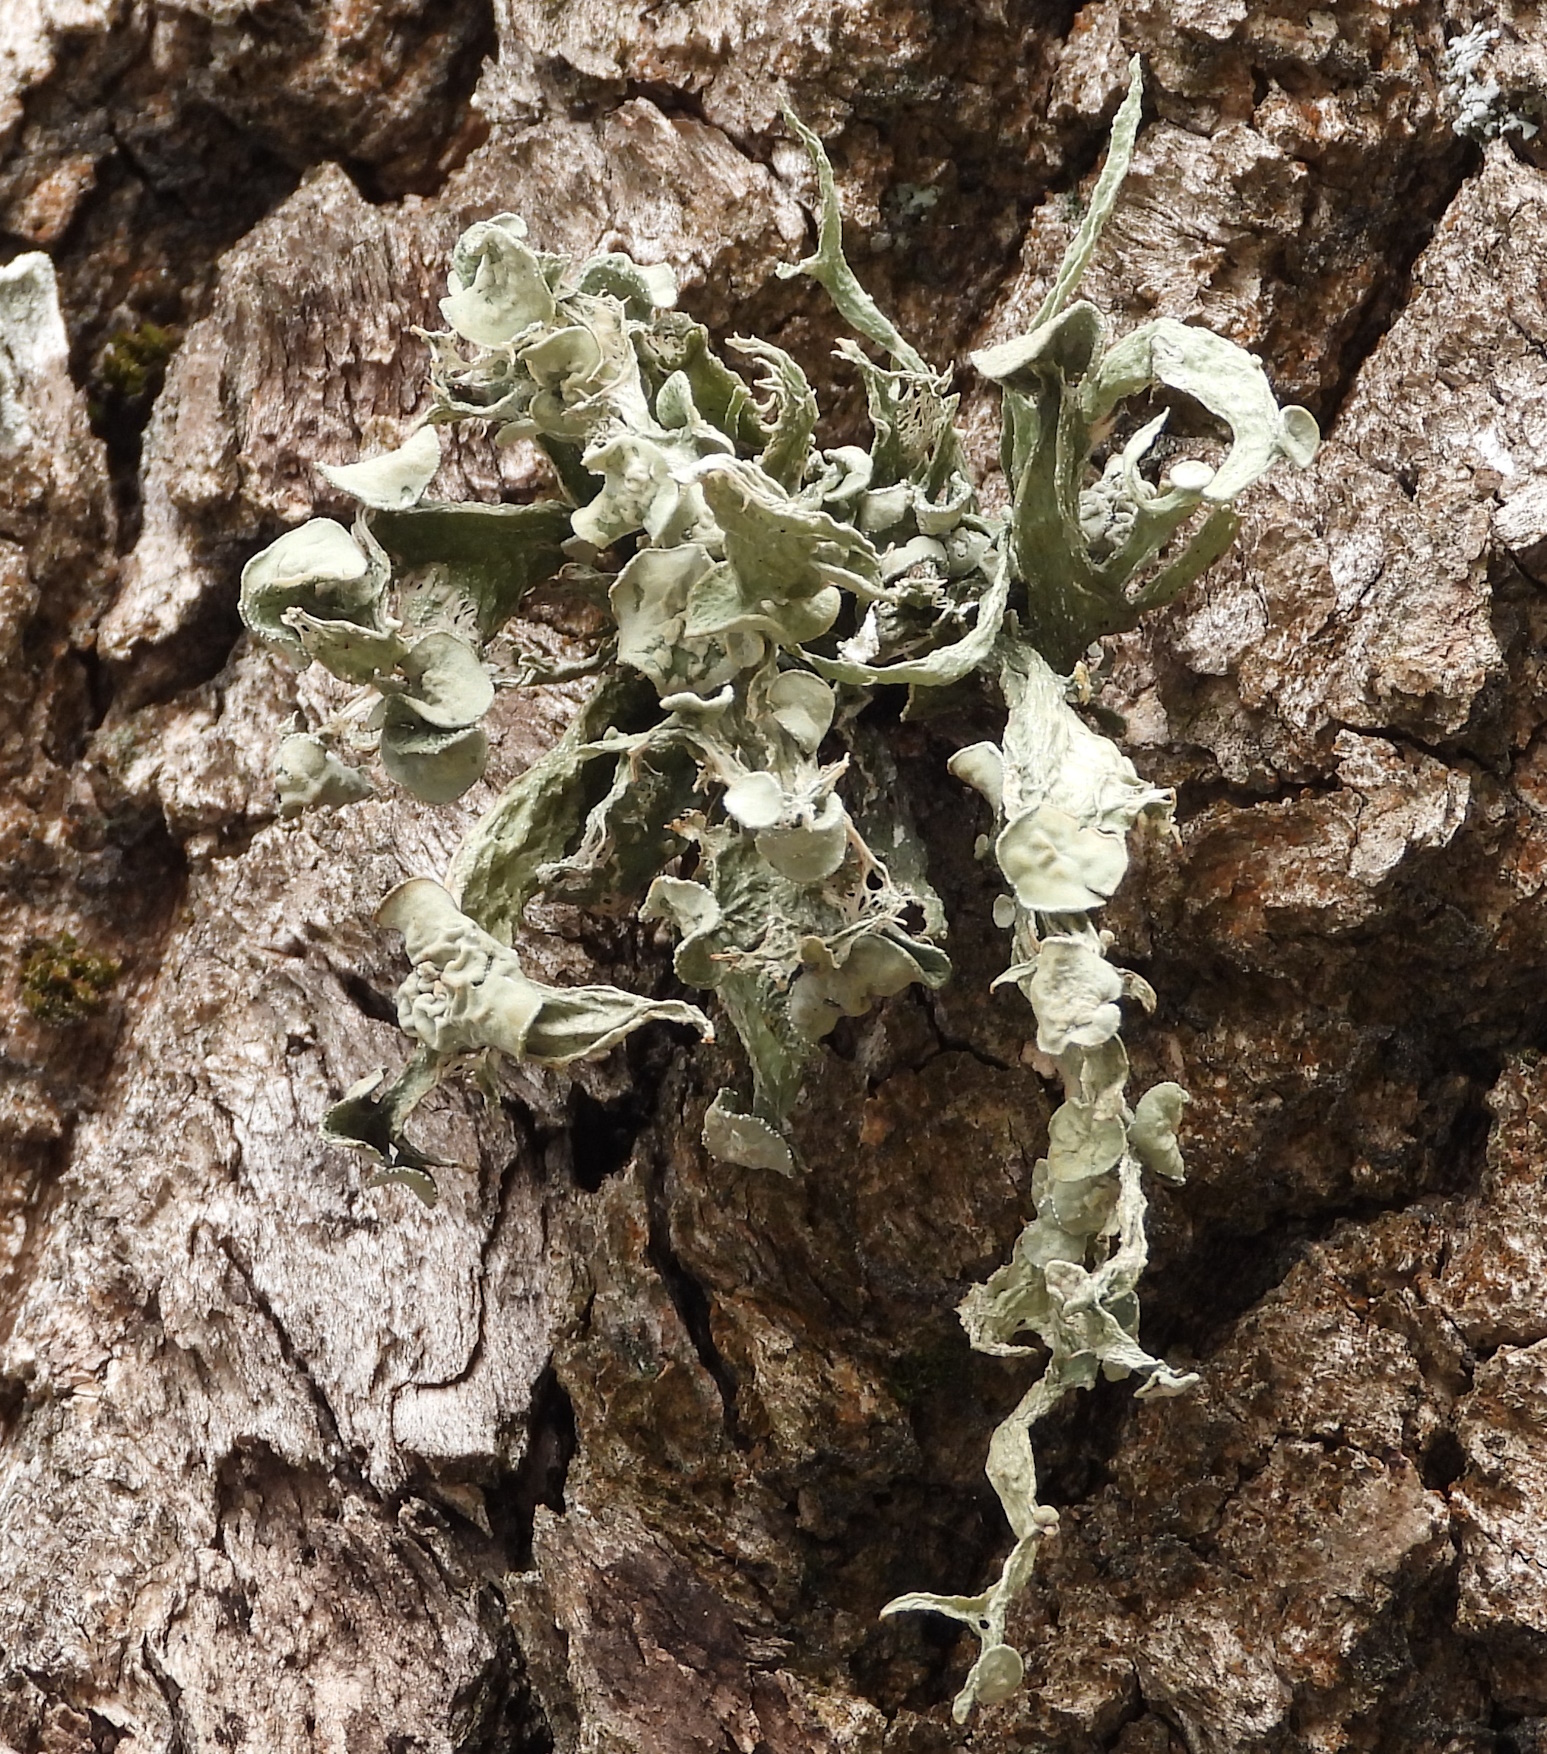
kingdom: Fungi
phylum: Ascomycota
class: Lecanoromycetes
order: Lecanorales
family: Ramalinaceae
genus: Ramalina
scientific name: Ramalina fraxinea
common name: Cartilage lichen
